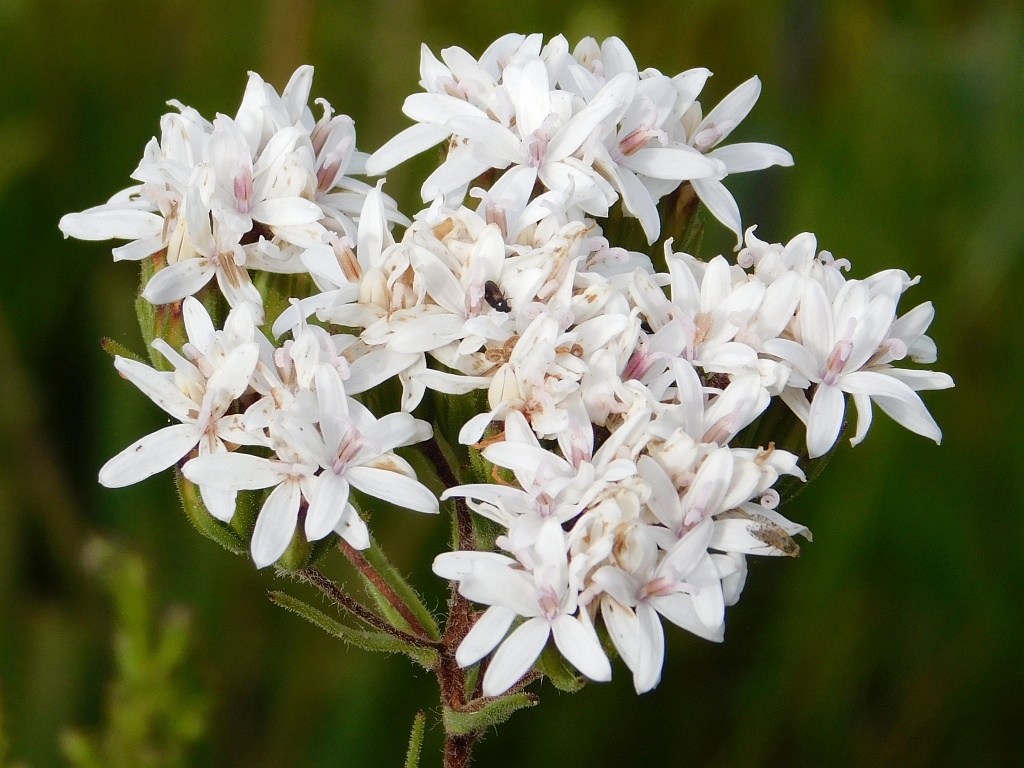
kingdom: Plantae
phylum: Tracheophyta
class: Magnoliopsida
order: Asterales
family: Asteraceae
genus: Corymbium
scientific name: Corymbium villosum
